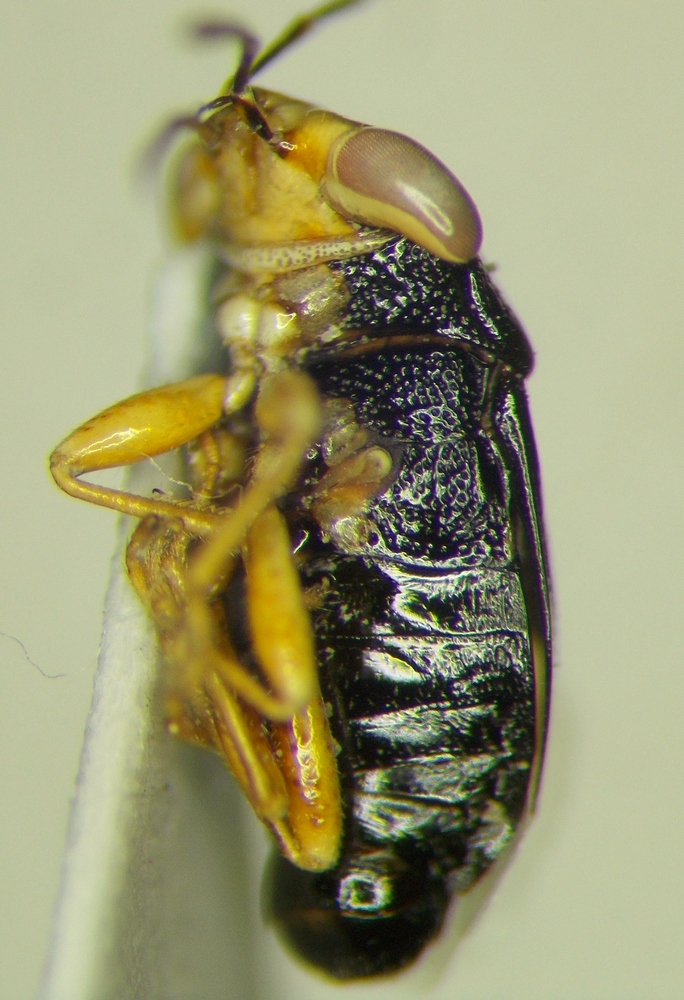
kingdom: Animalia
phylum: Arthropoda
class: Insecta
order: Hemiptera
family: Geocoridae
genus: Geocoris
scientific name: Geocoris erythrocephala
